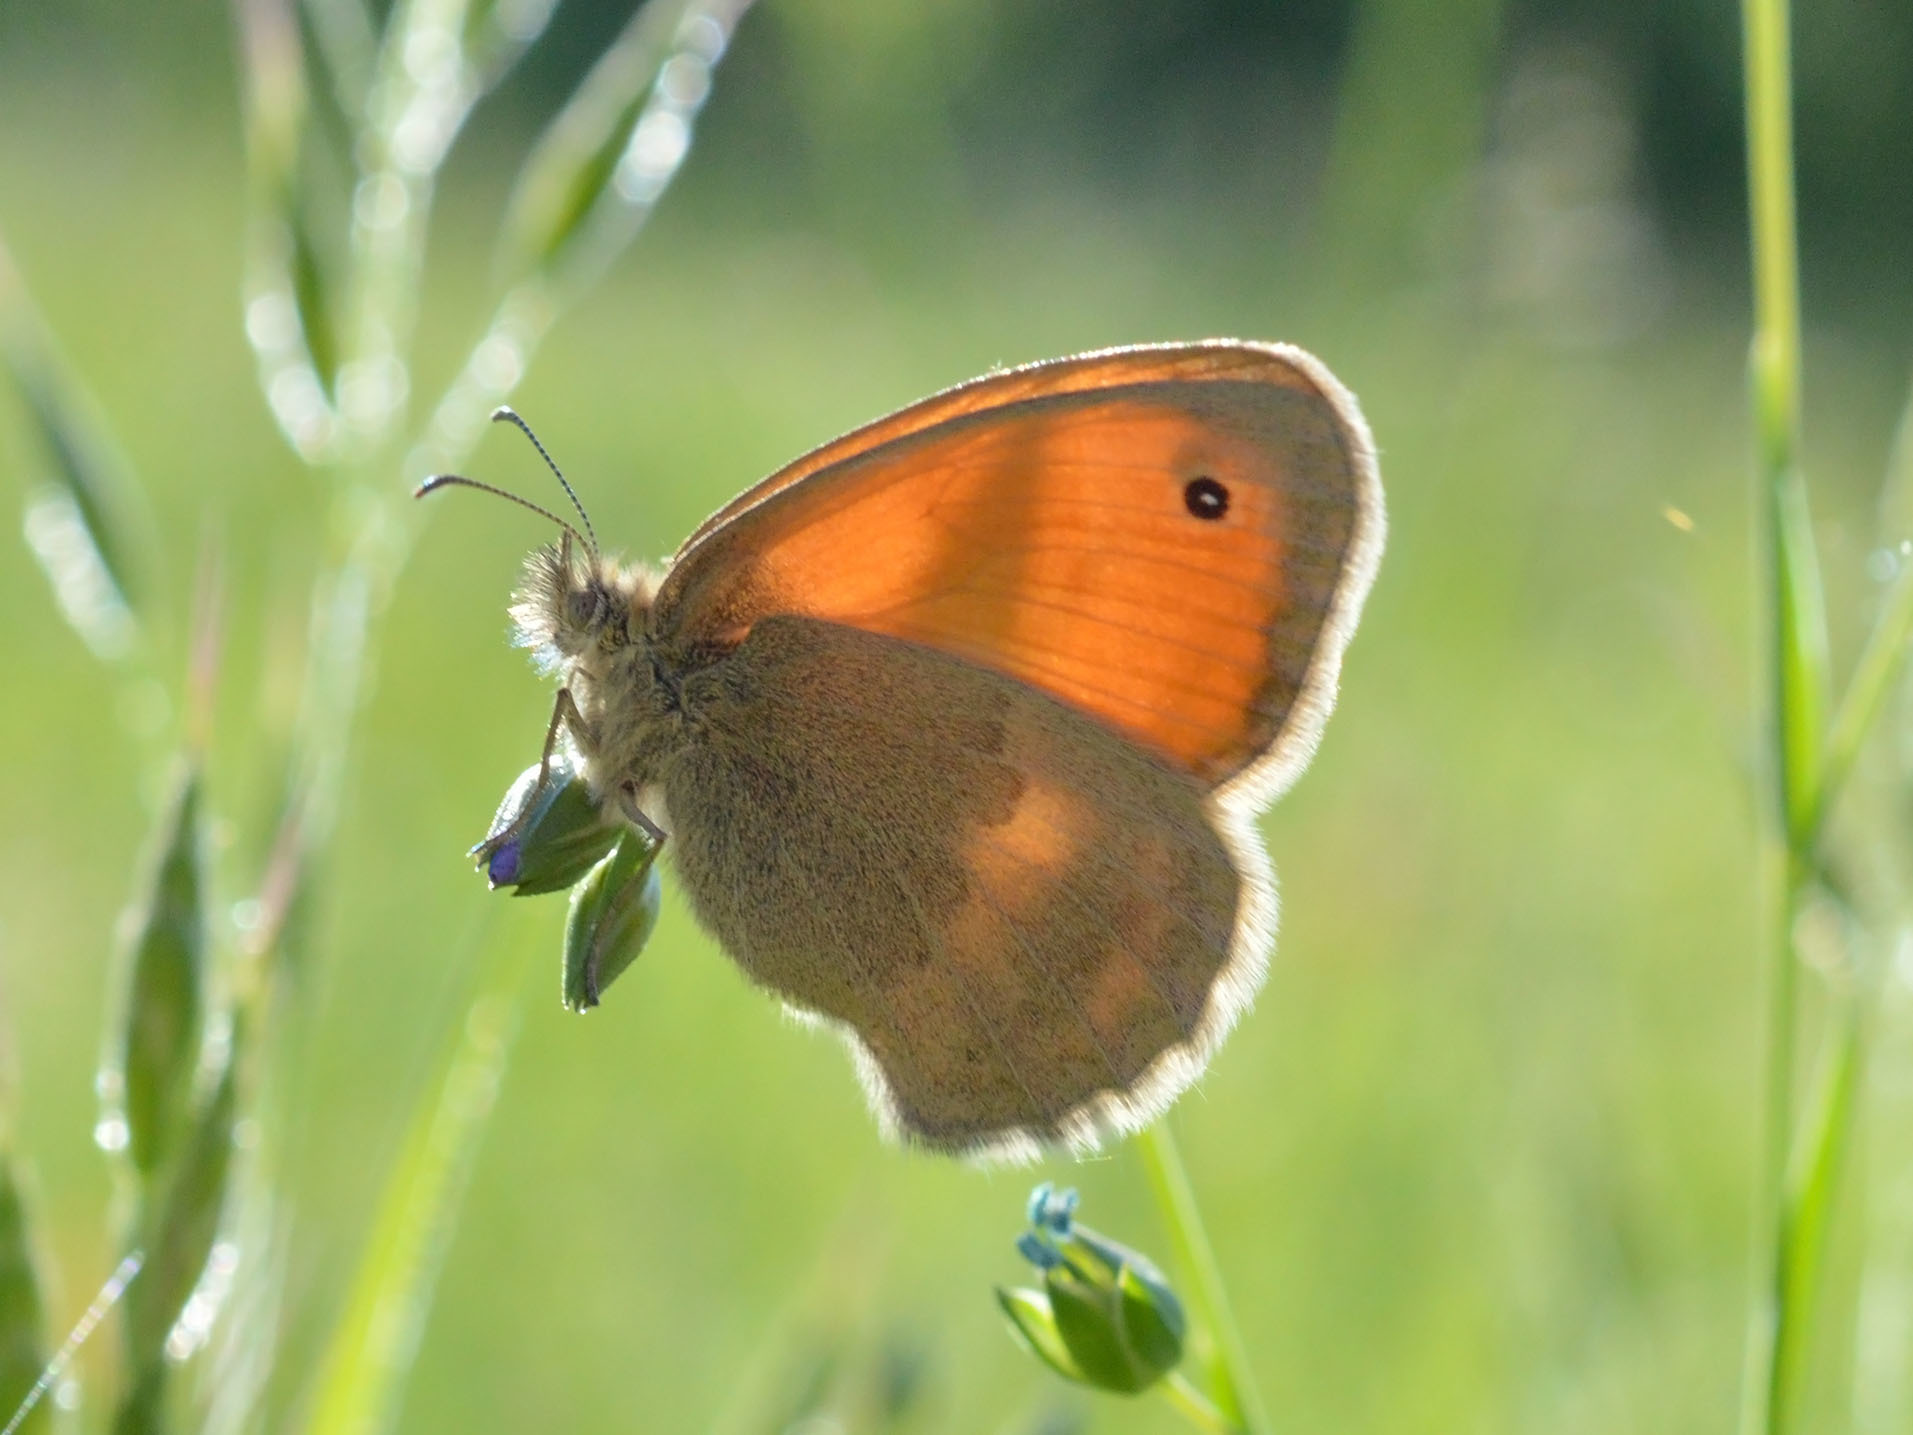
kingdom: Animalia
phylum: Arthropoda
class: Insecta
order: Lepidoptera
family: Nymphalidae
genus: Coenonympha
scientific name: Coenonympha pamphilus
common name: Small heath
